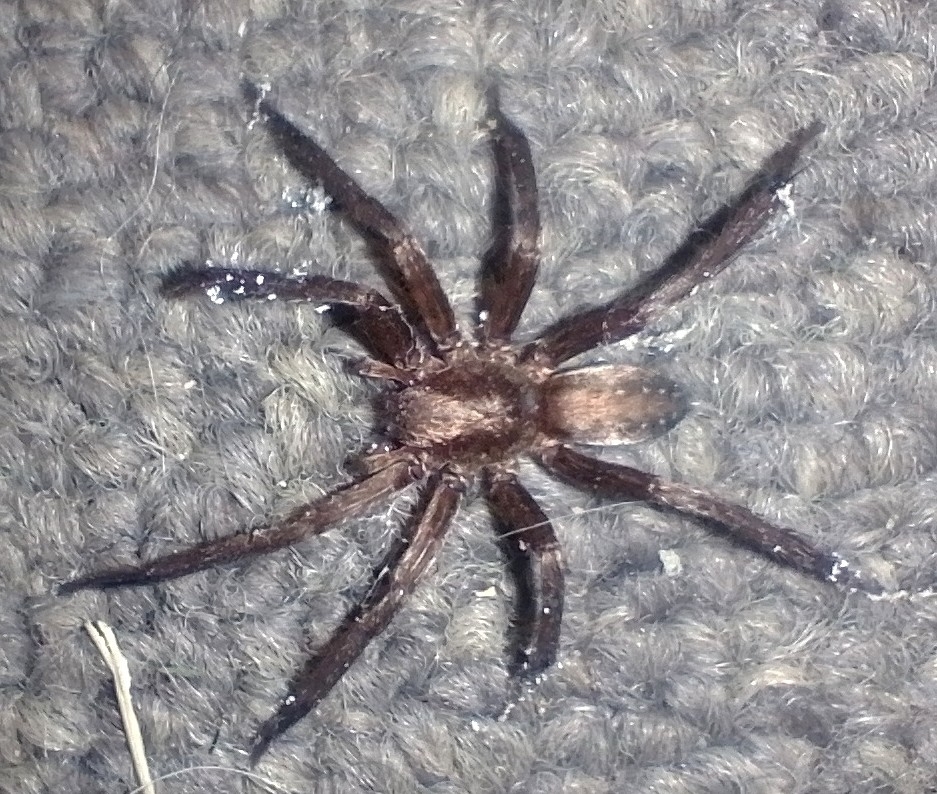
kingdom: Animalia
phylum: Arthropoda
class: Arachnida
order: Araneae
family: Ctenidae
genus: Asthenoctenus
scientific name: Asthenoctenus borellii
